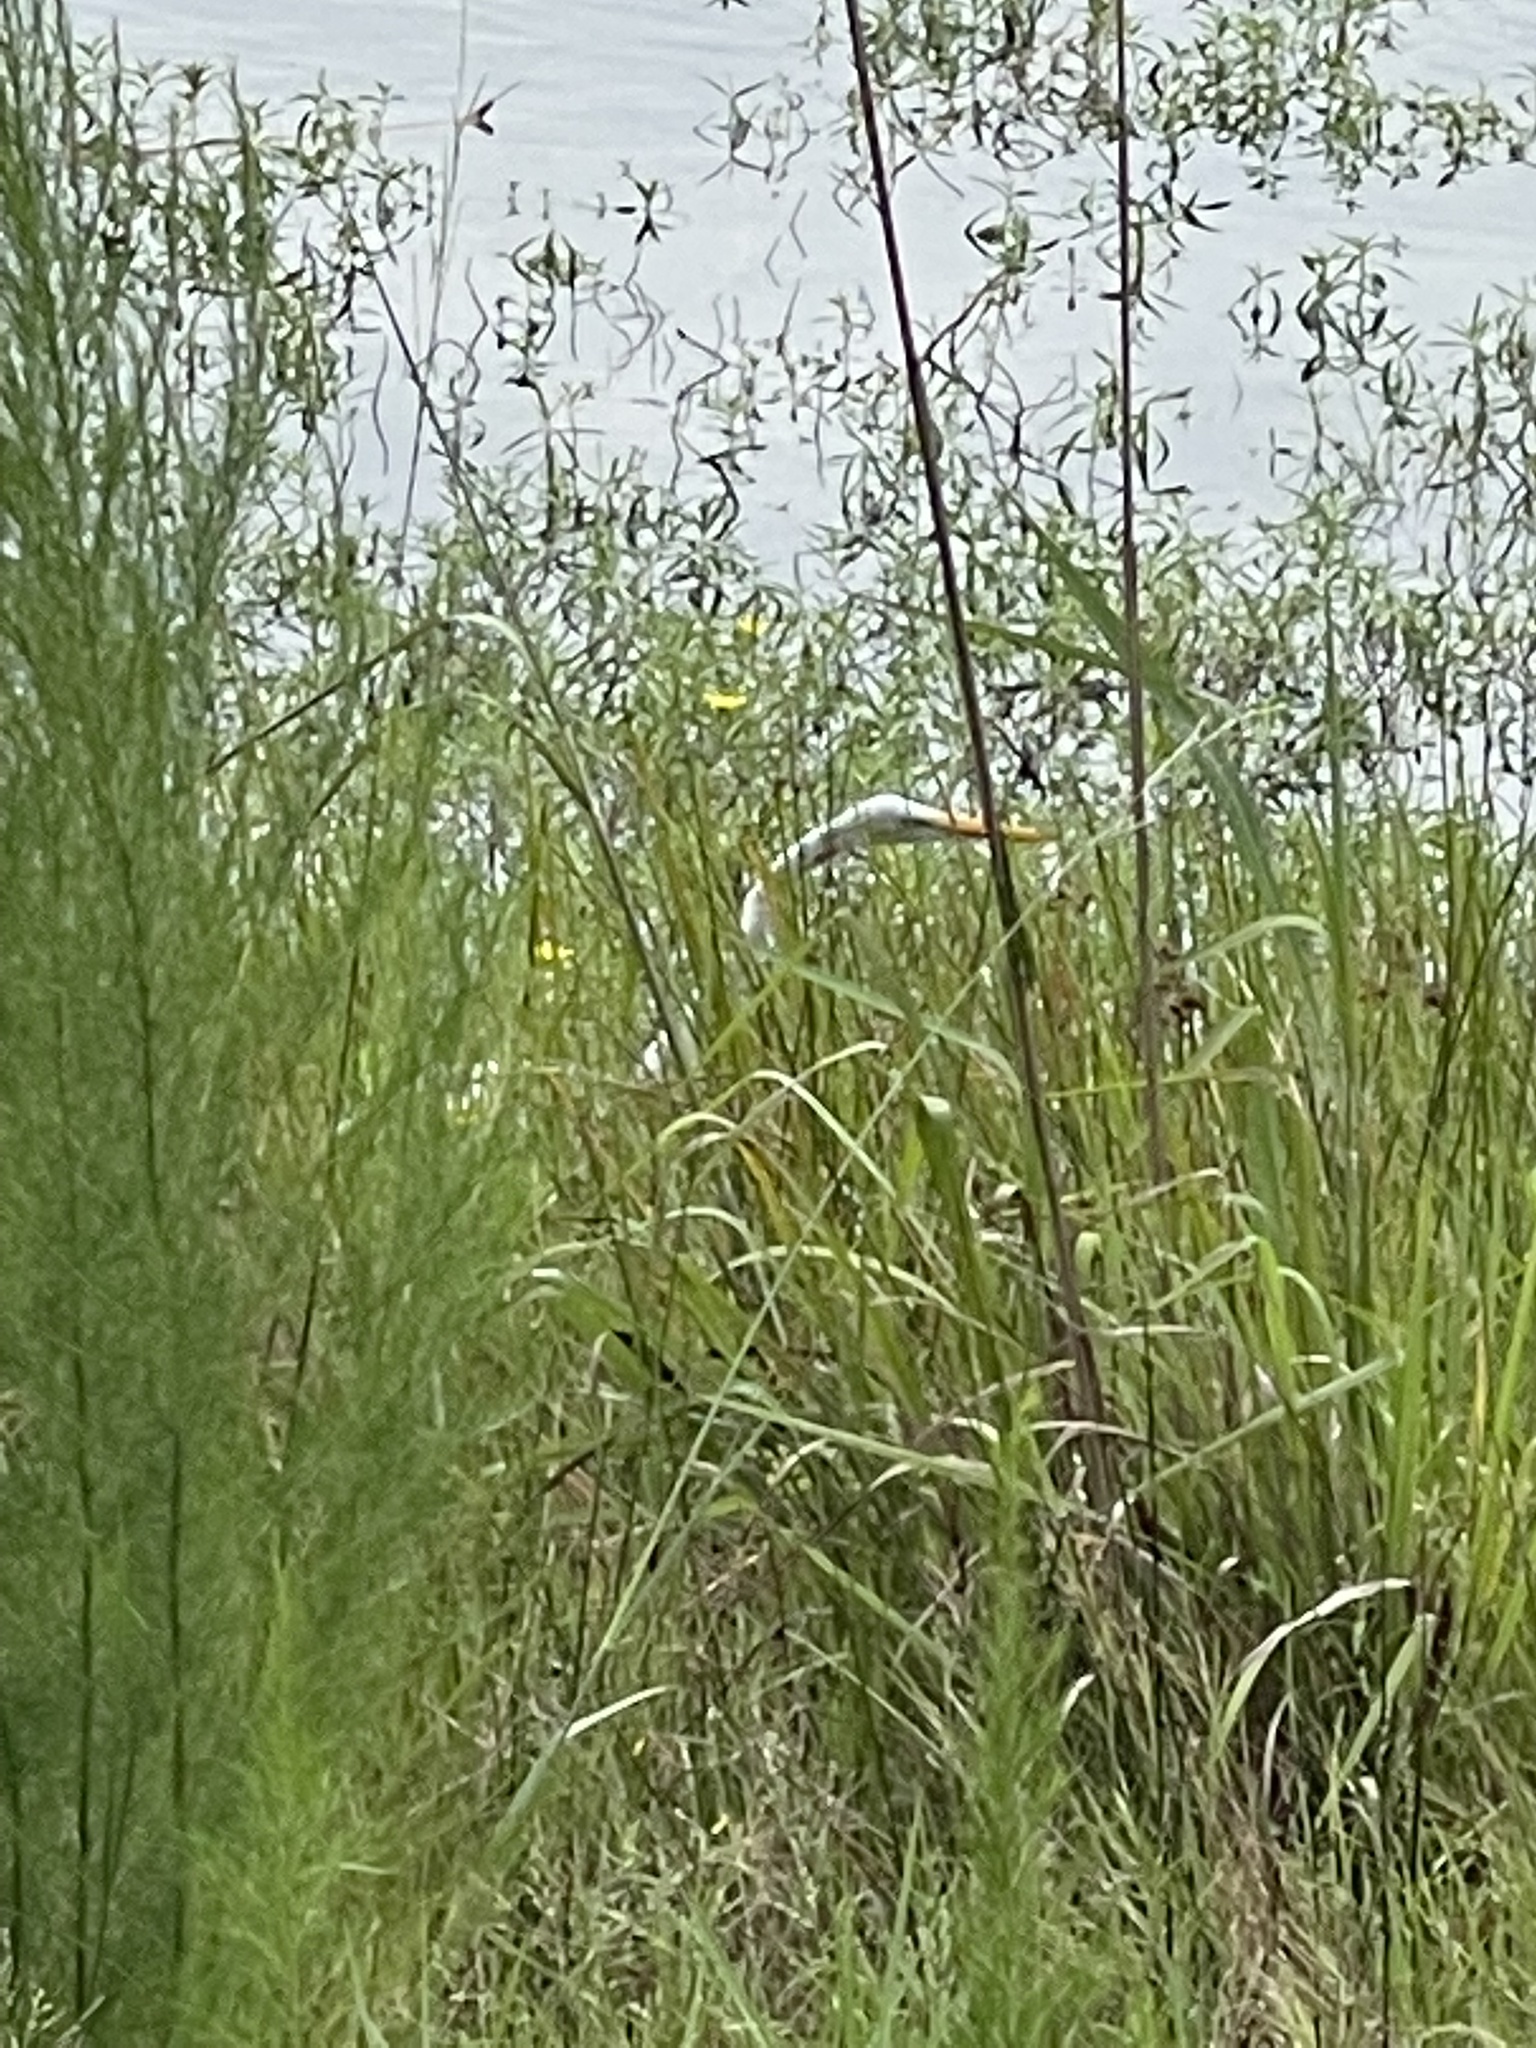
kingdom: Animalia
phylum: Chordata
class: Aves
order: Pelecaniformes
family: Ardeidae
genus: Ardea
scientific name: Ardea alba
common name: Great egret
